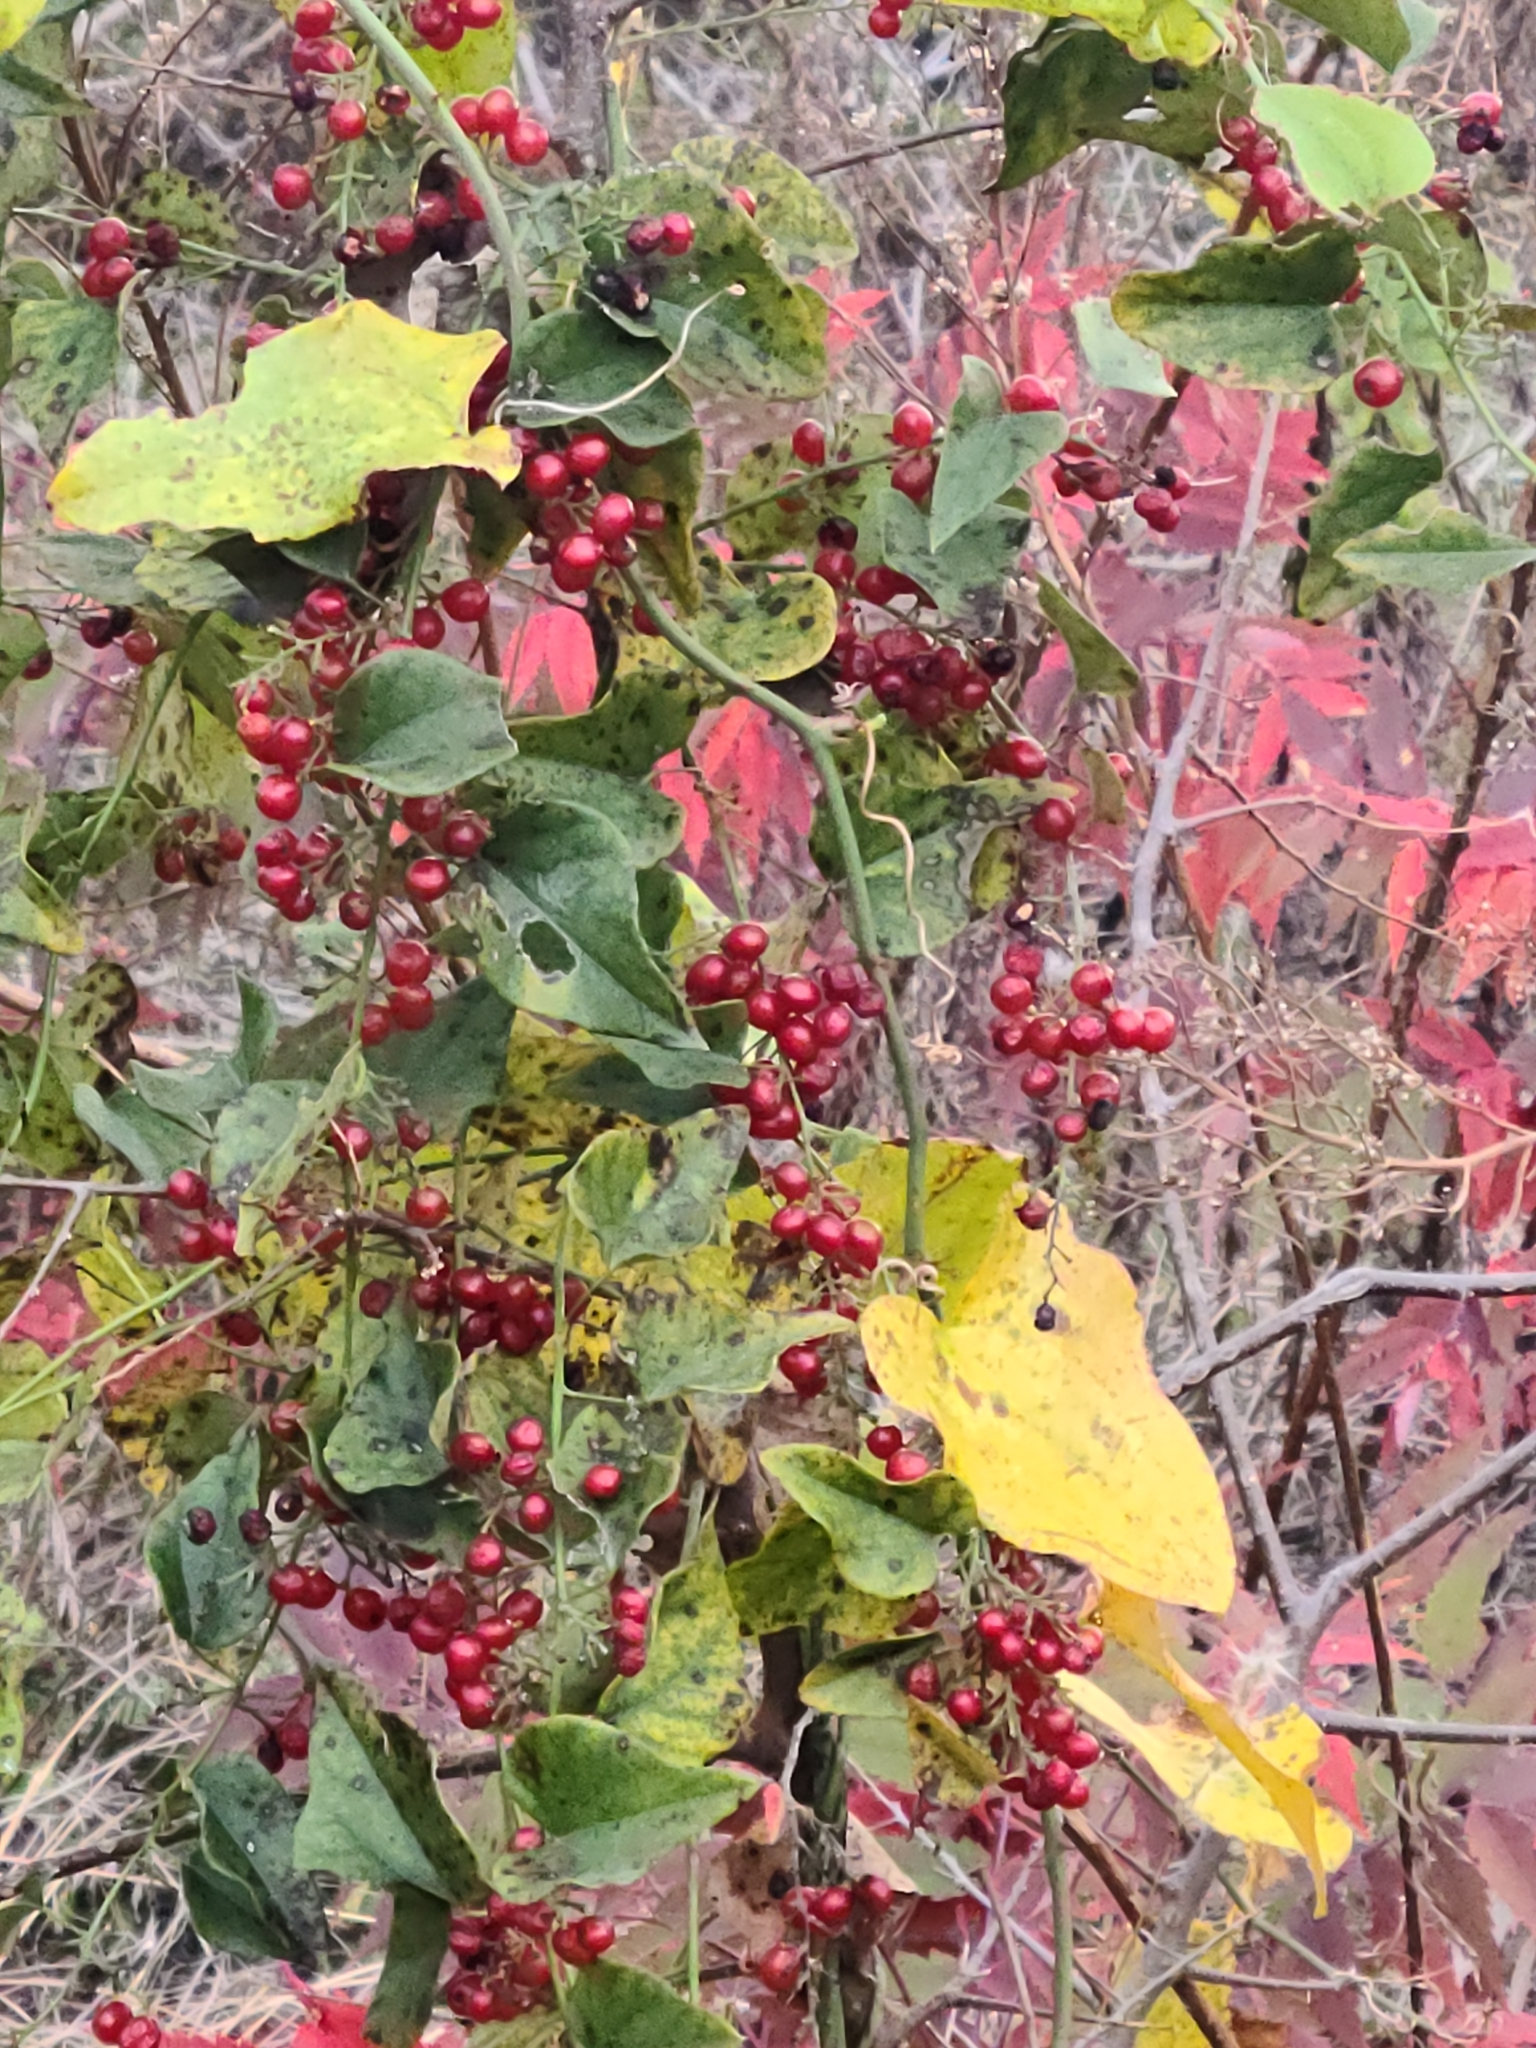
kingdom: Plantae
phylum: Tracheophyta
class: Magnoliopsida
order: Ranunculales
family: Menispermaceae
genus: Cocculus
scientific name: Cocculus carolinus
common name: Carolina moonseed
